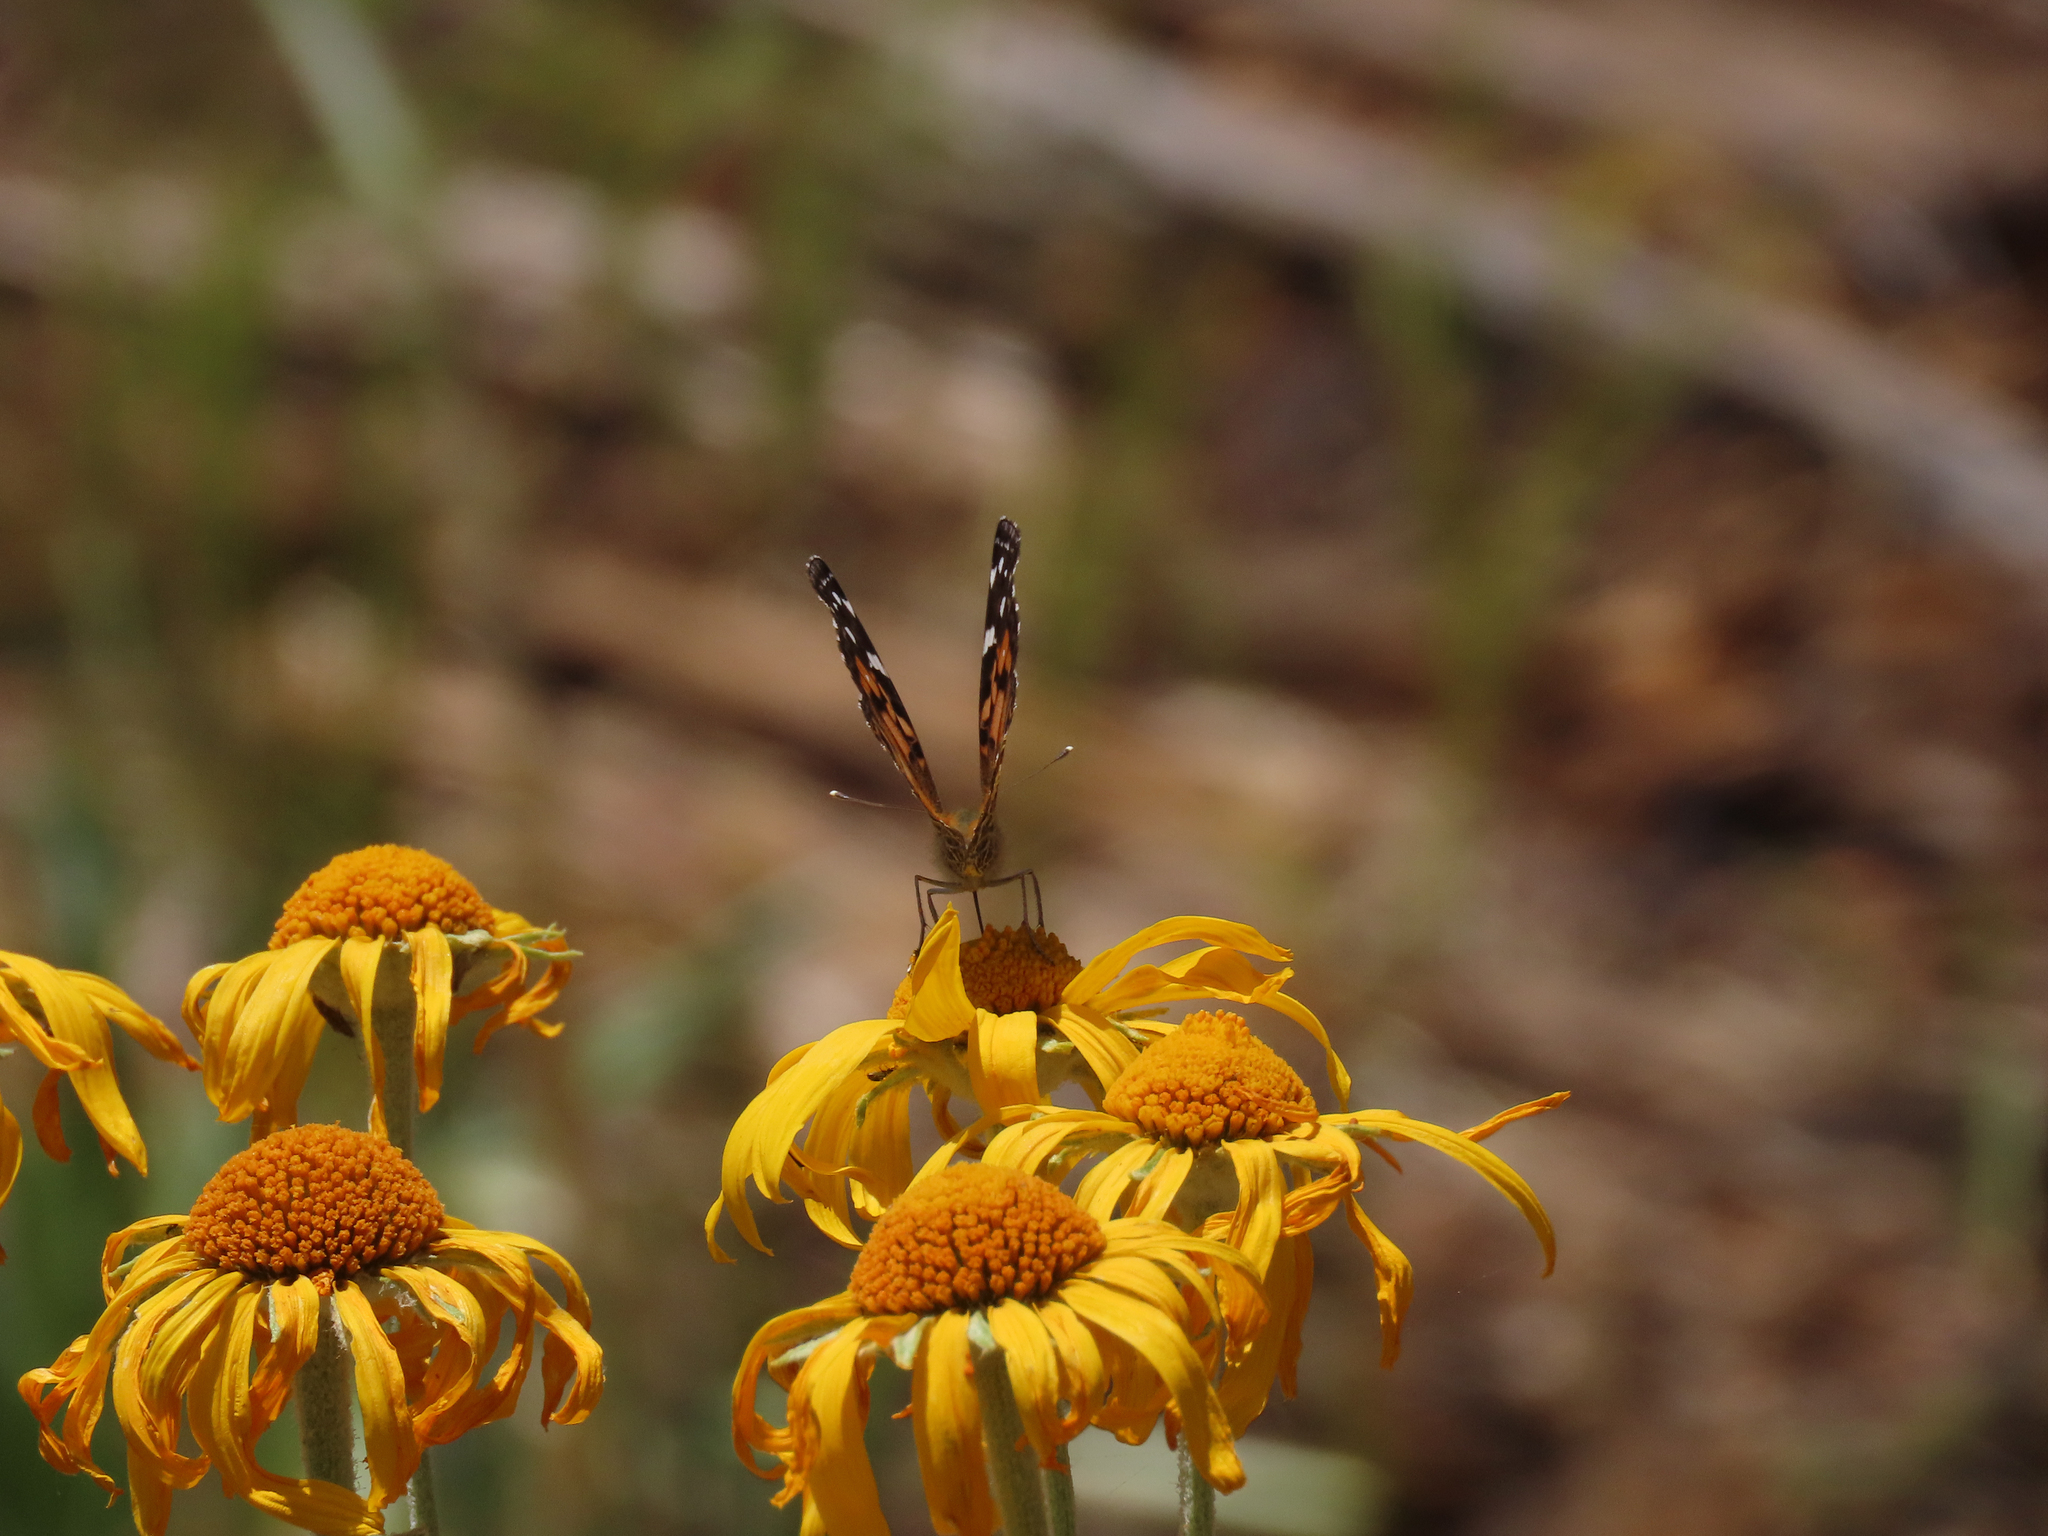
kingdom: Animalia
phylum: Arthropoda
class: Insecta
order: Lepidoptera
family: Nymphalidae
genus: Vanessa
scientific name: Vanessa virginiensis
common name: American lady
